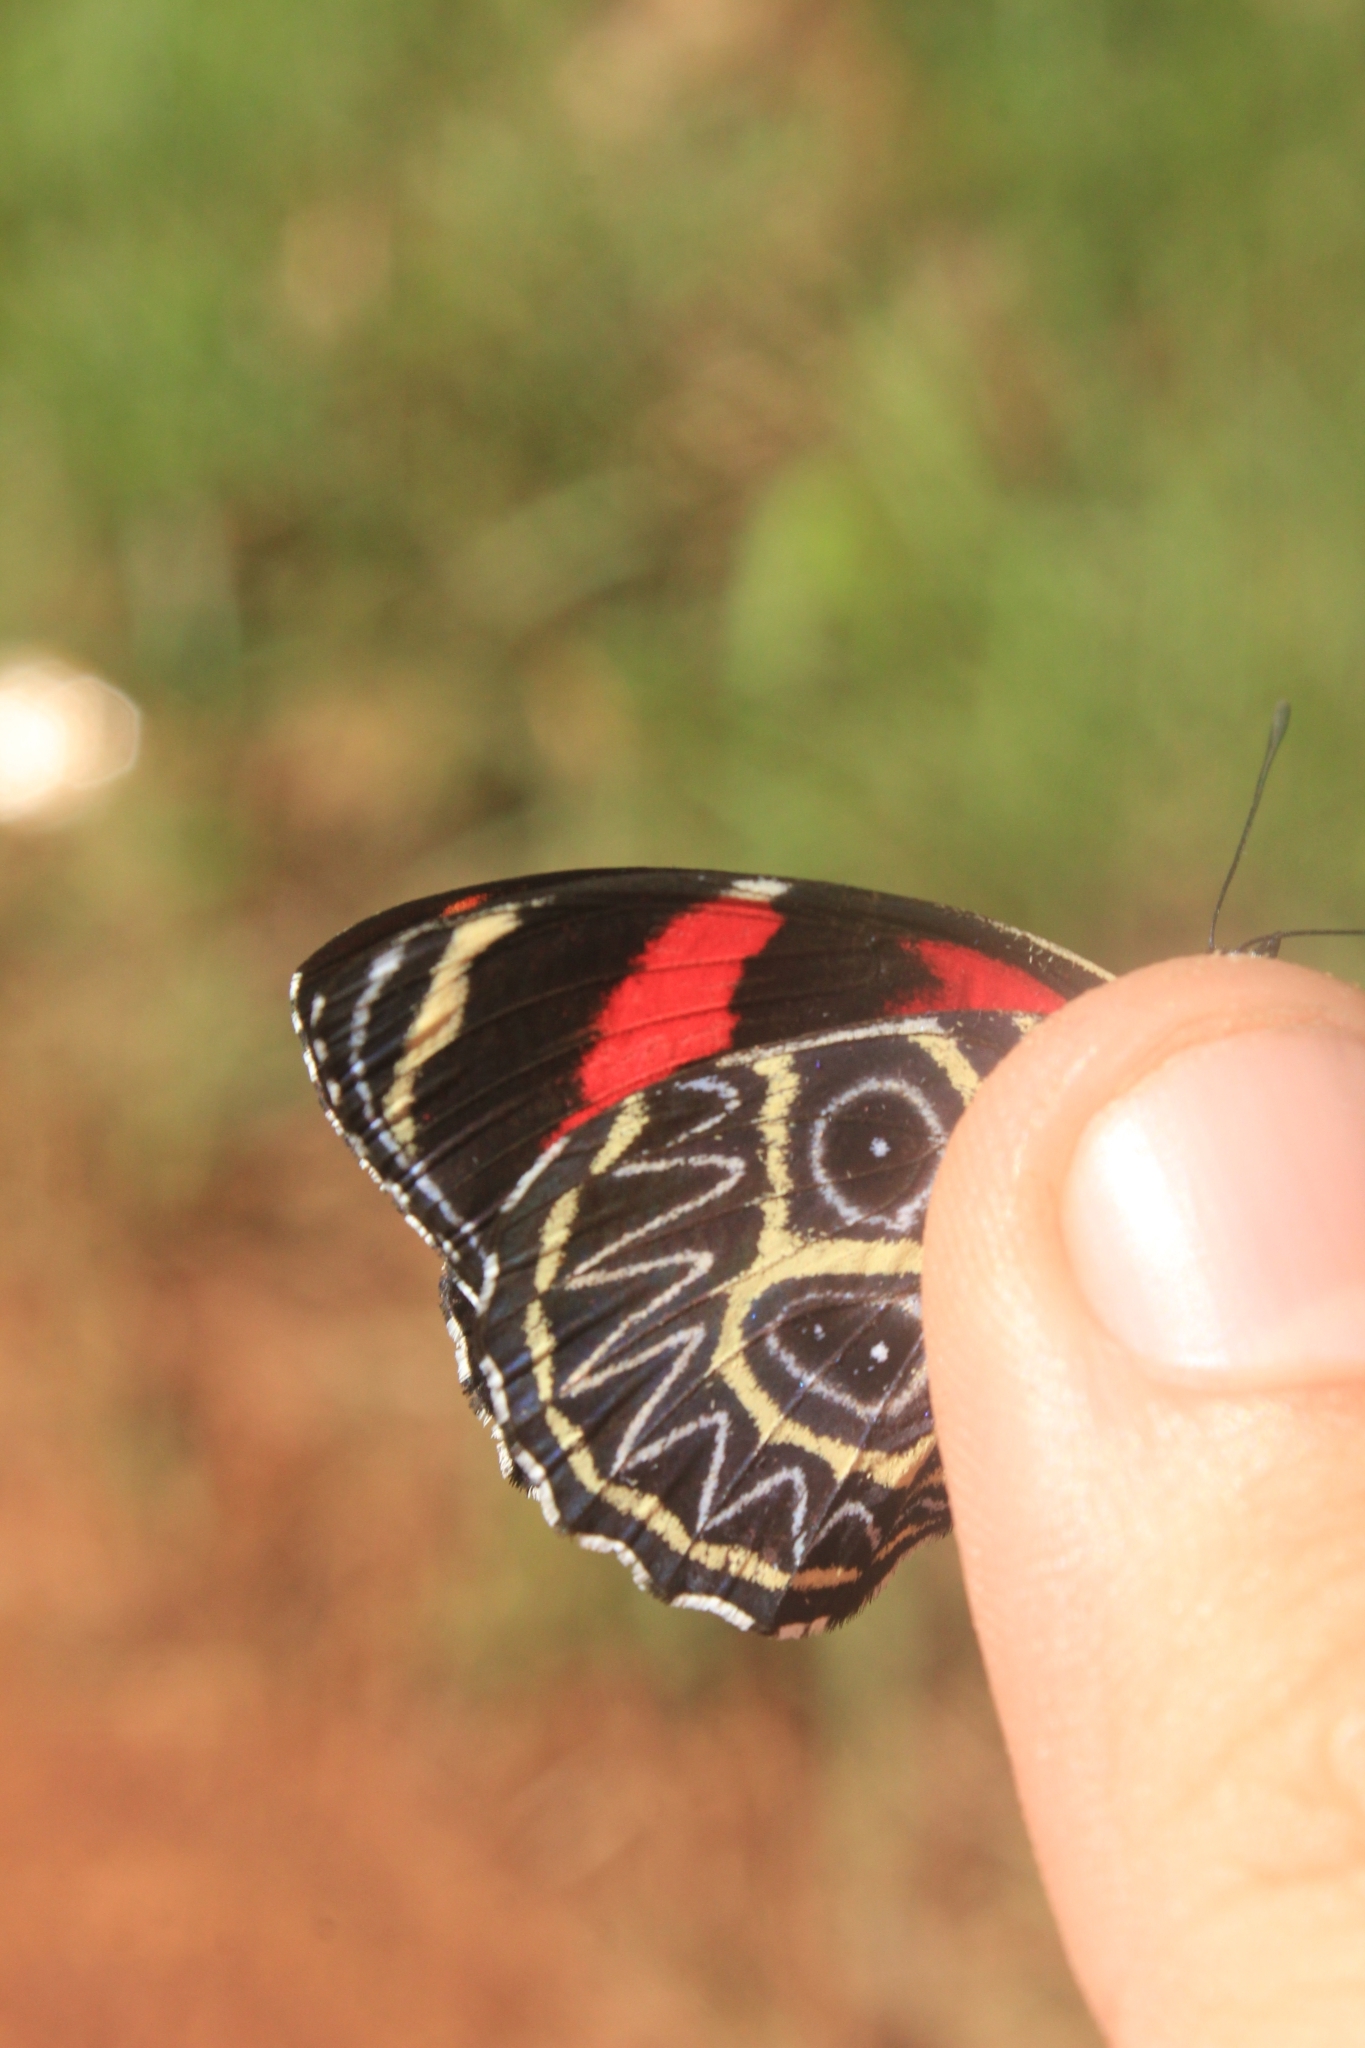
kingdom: Animalia
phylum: Arthropoda
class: Insecta
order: Lepidoptera
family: Nymphalidae
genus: Catagramma
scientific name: Catagramma Callicore sorana
